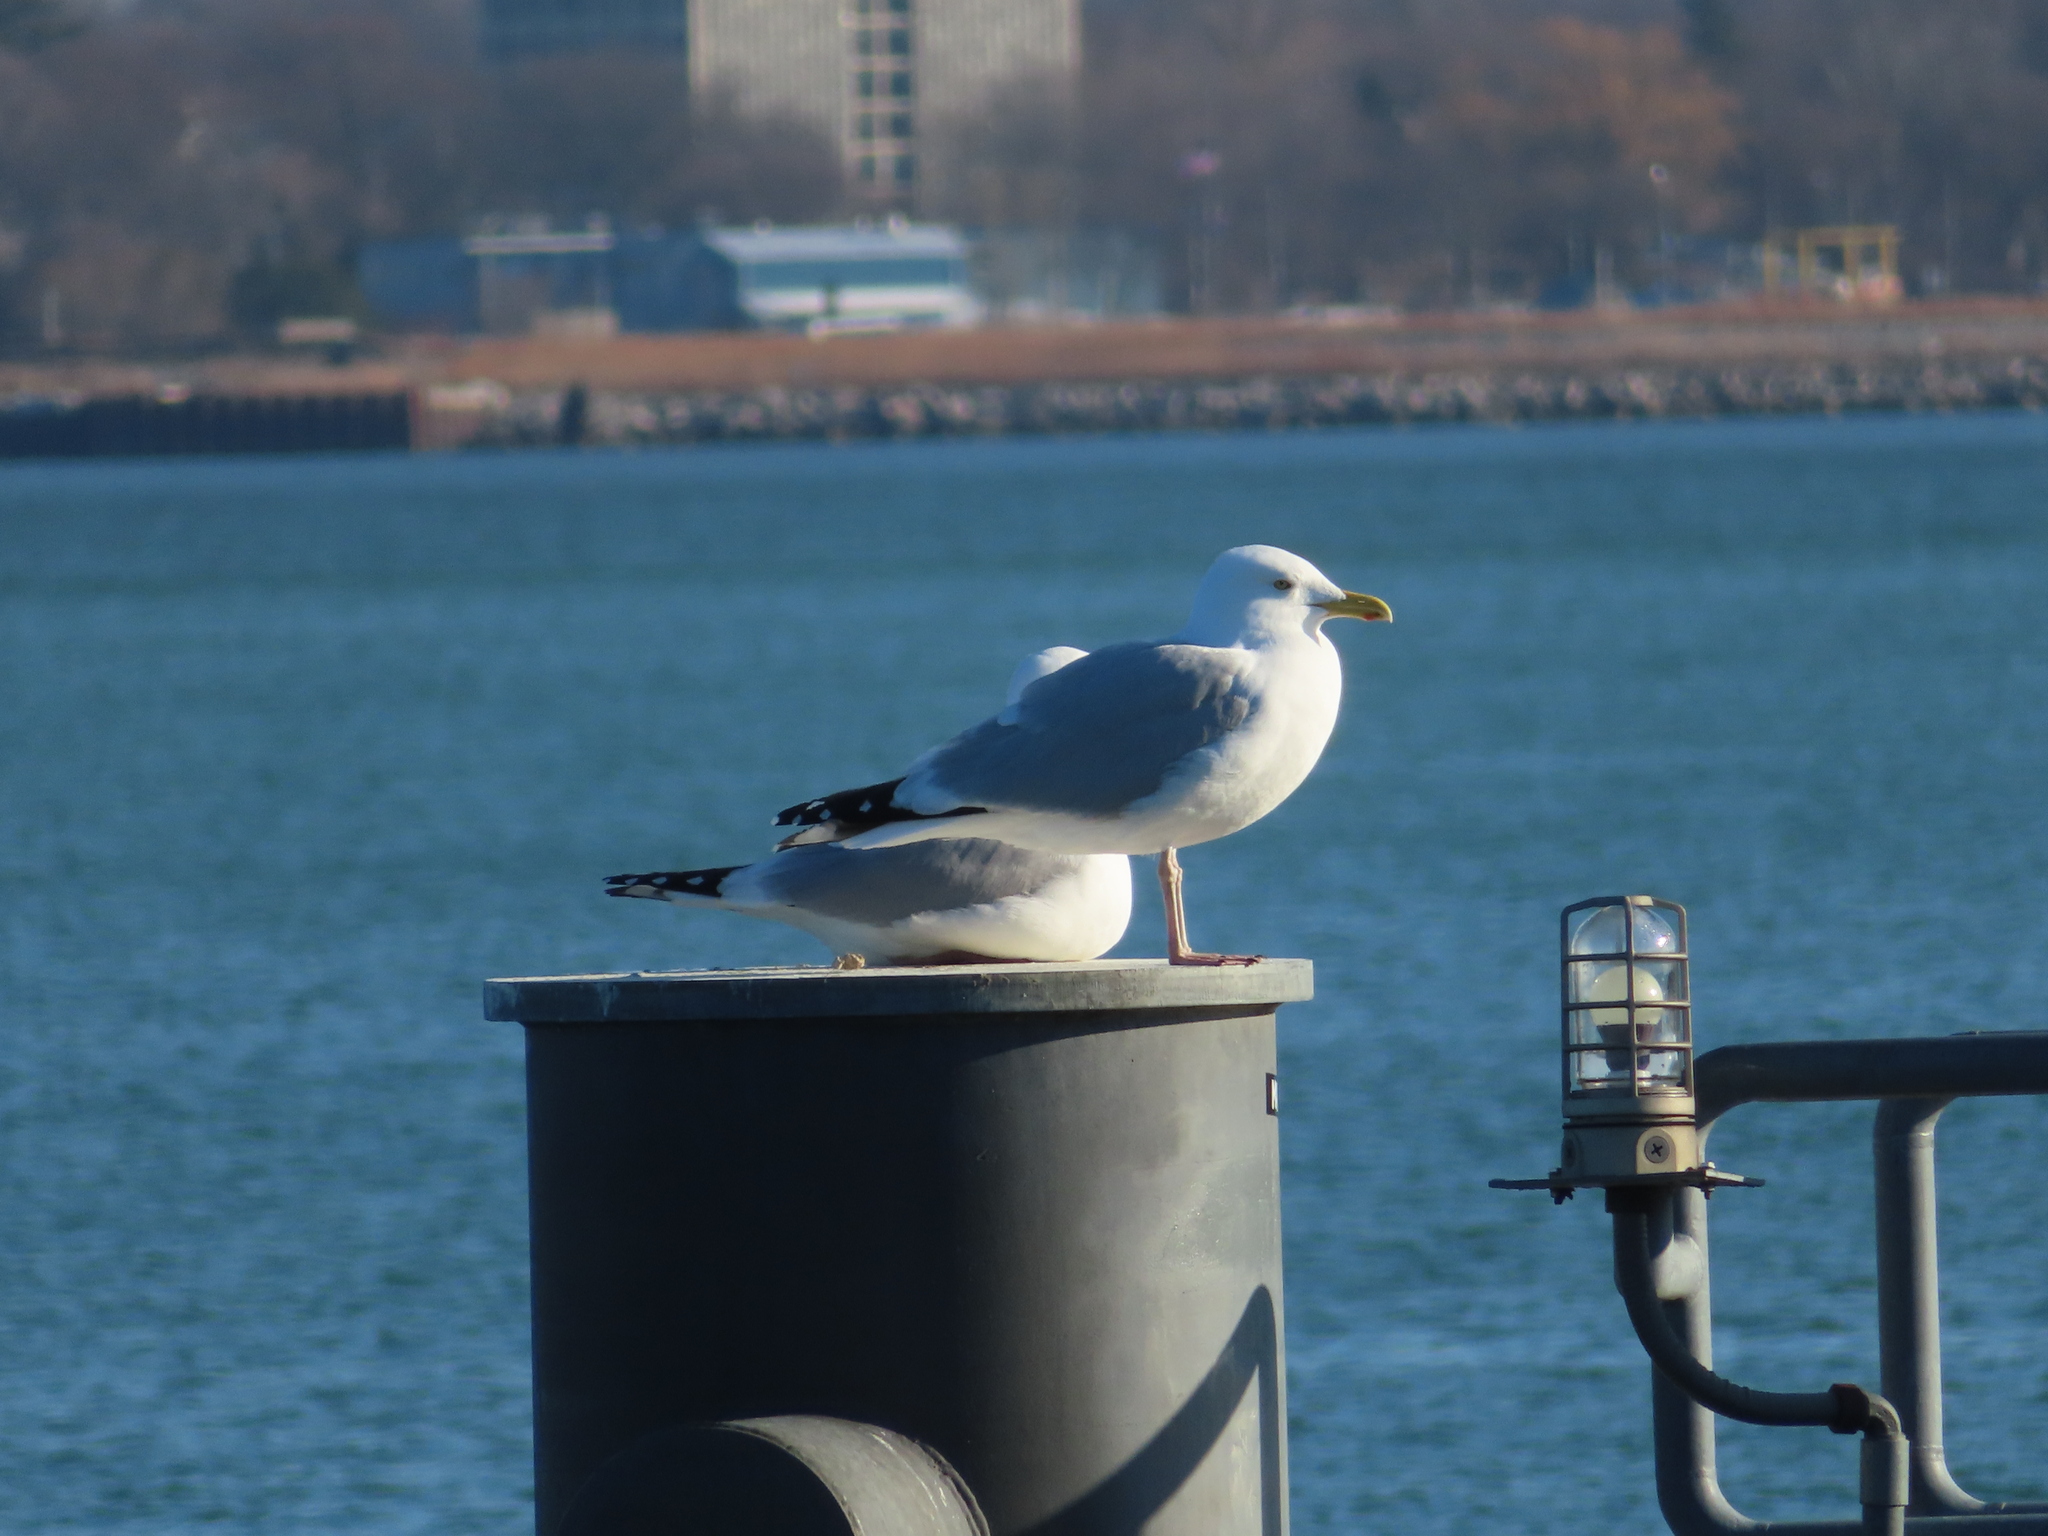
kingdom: Animalia
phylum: Chordata
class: Aves
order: Charadriiformes
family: Laridae
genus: Larus
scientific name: Larus argentatus
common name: Herring gull
